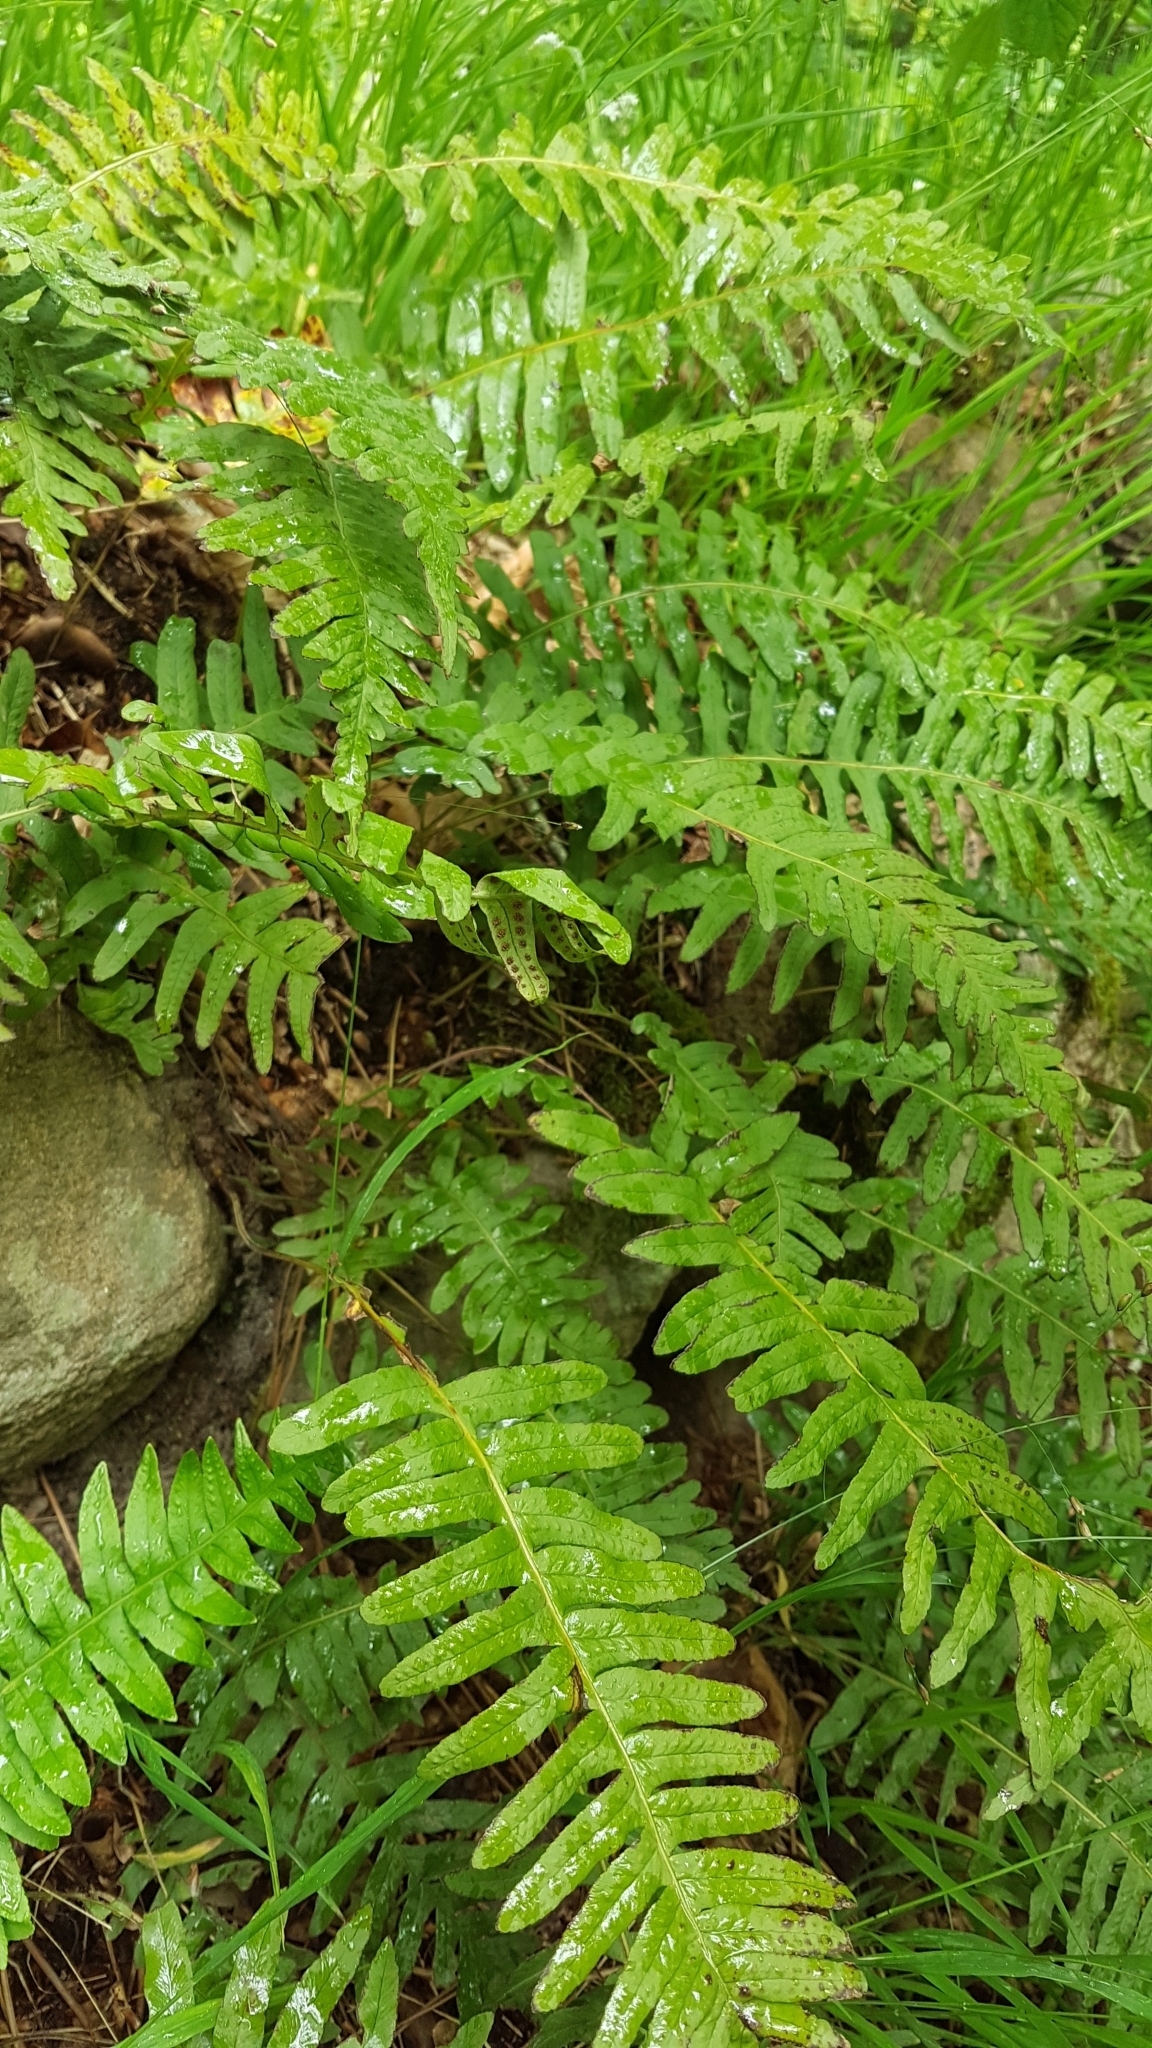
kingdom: Plantae
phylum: Tracheophyta
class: Polypodiopsida
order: Polypodiales
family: Polypodiaceae
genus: Polypodium
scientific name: Polypodium vulgare
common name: Common polypody
